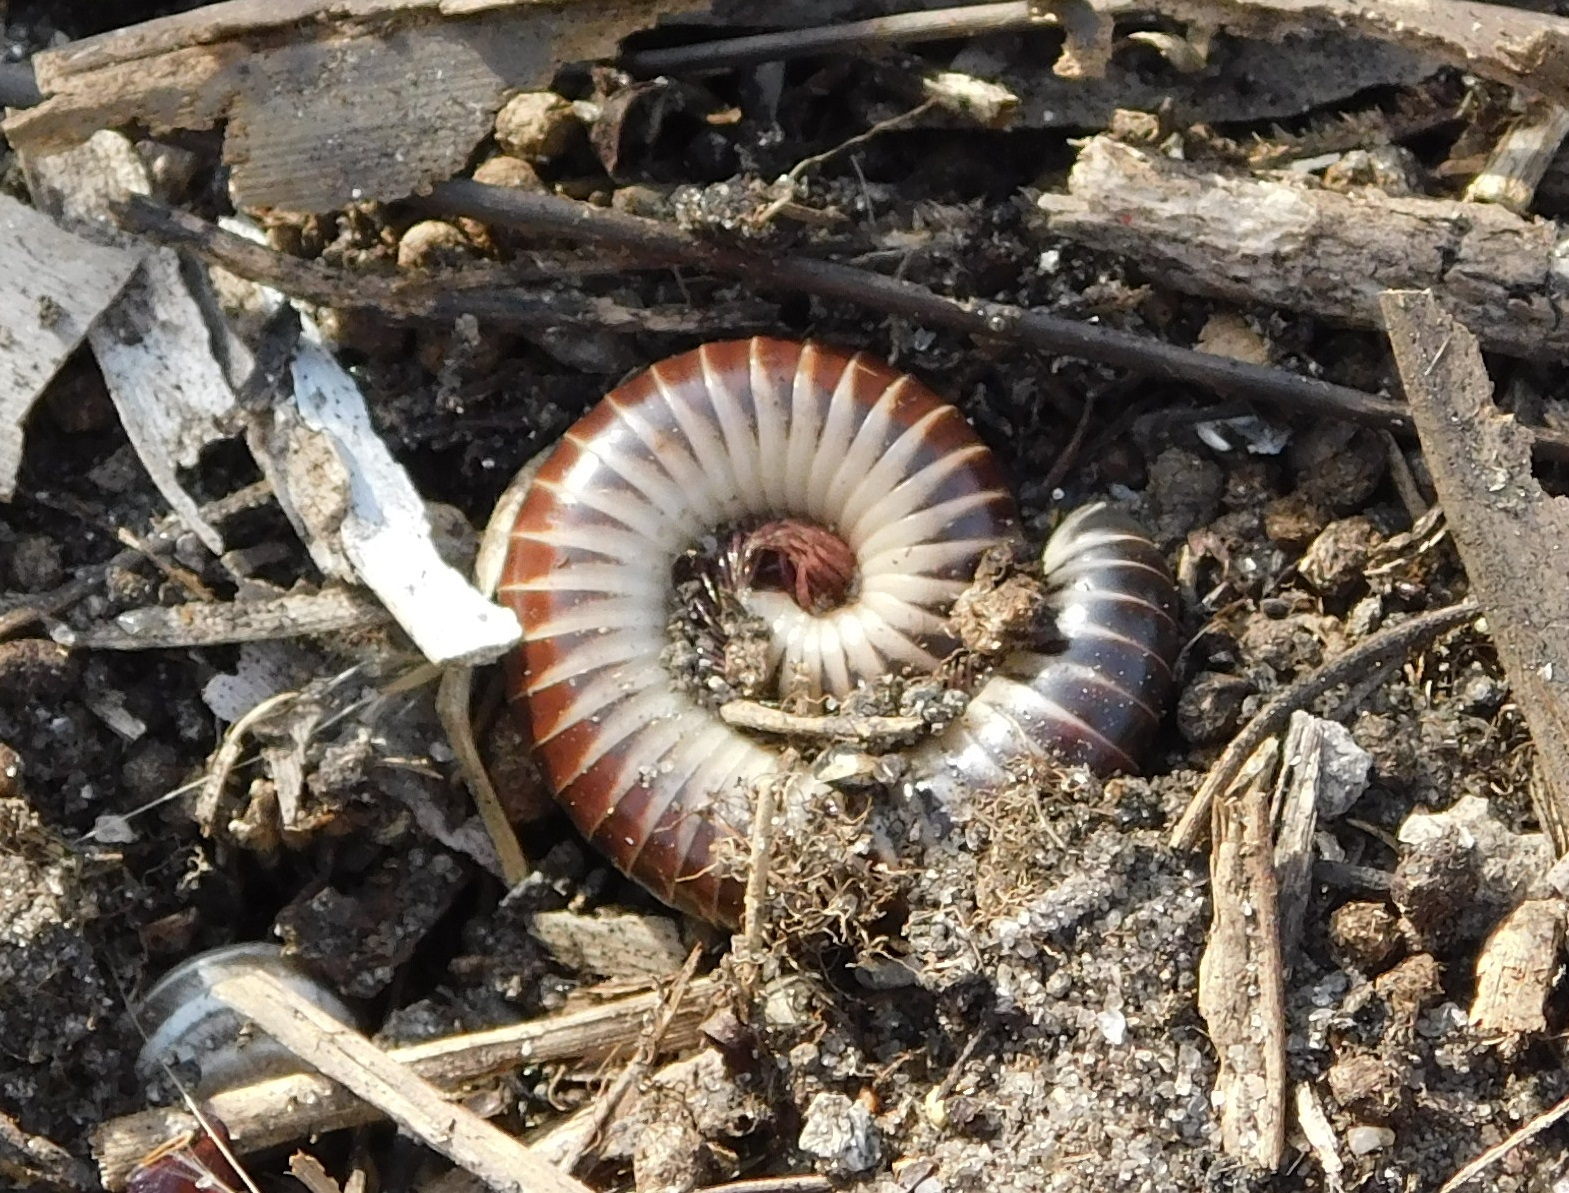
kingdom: Animalia
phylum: Arthropoda
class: Diplopoda
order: Spirobolida
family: Spirobolidae
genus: Chicobolus
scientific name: Chicobolus spinigerus
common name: Florida ivory millipede
